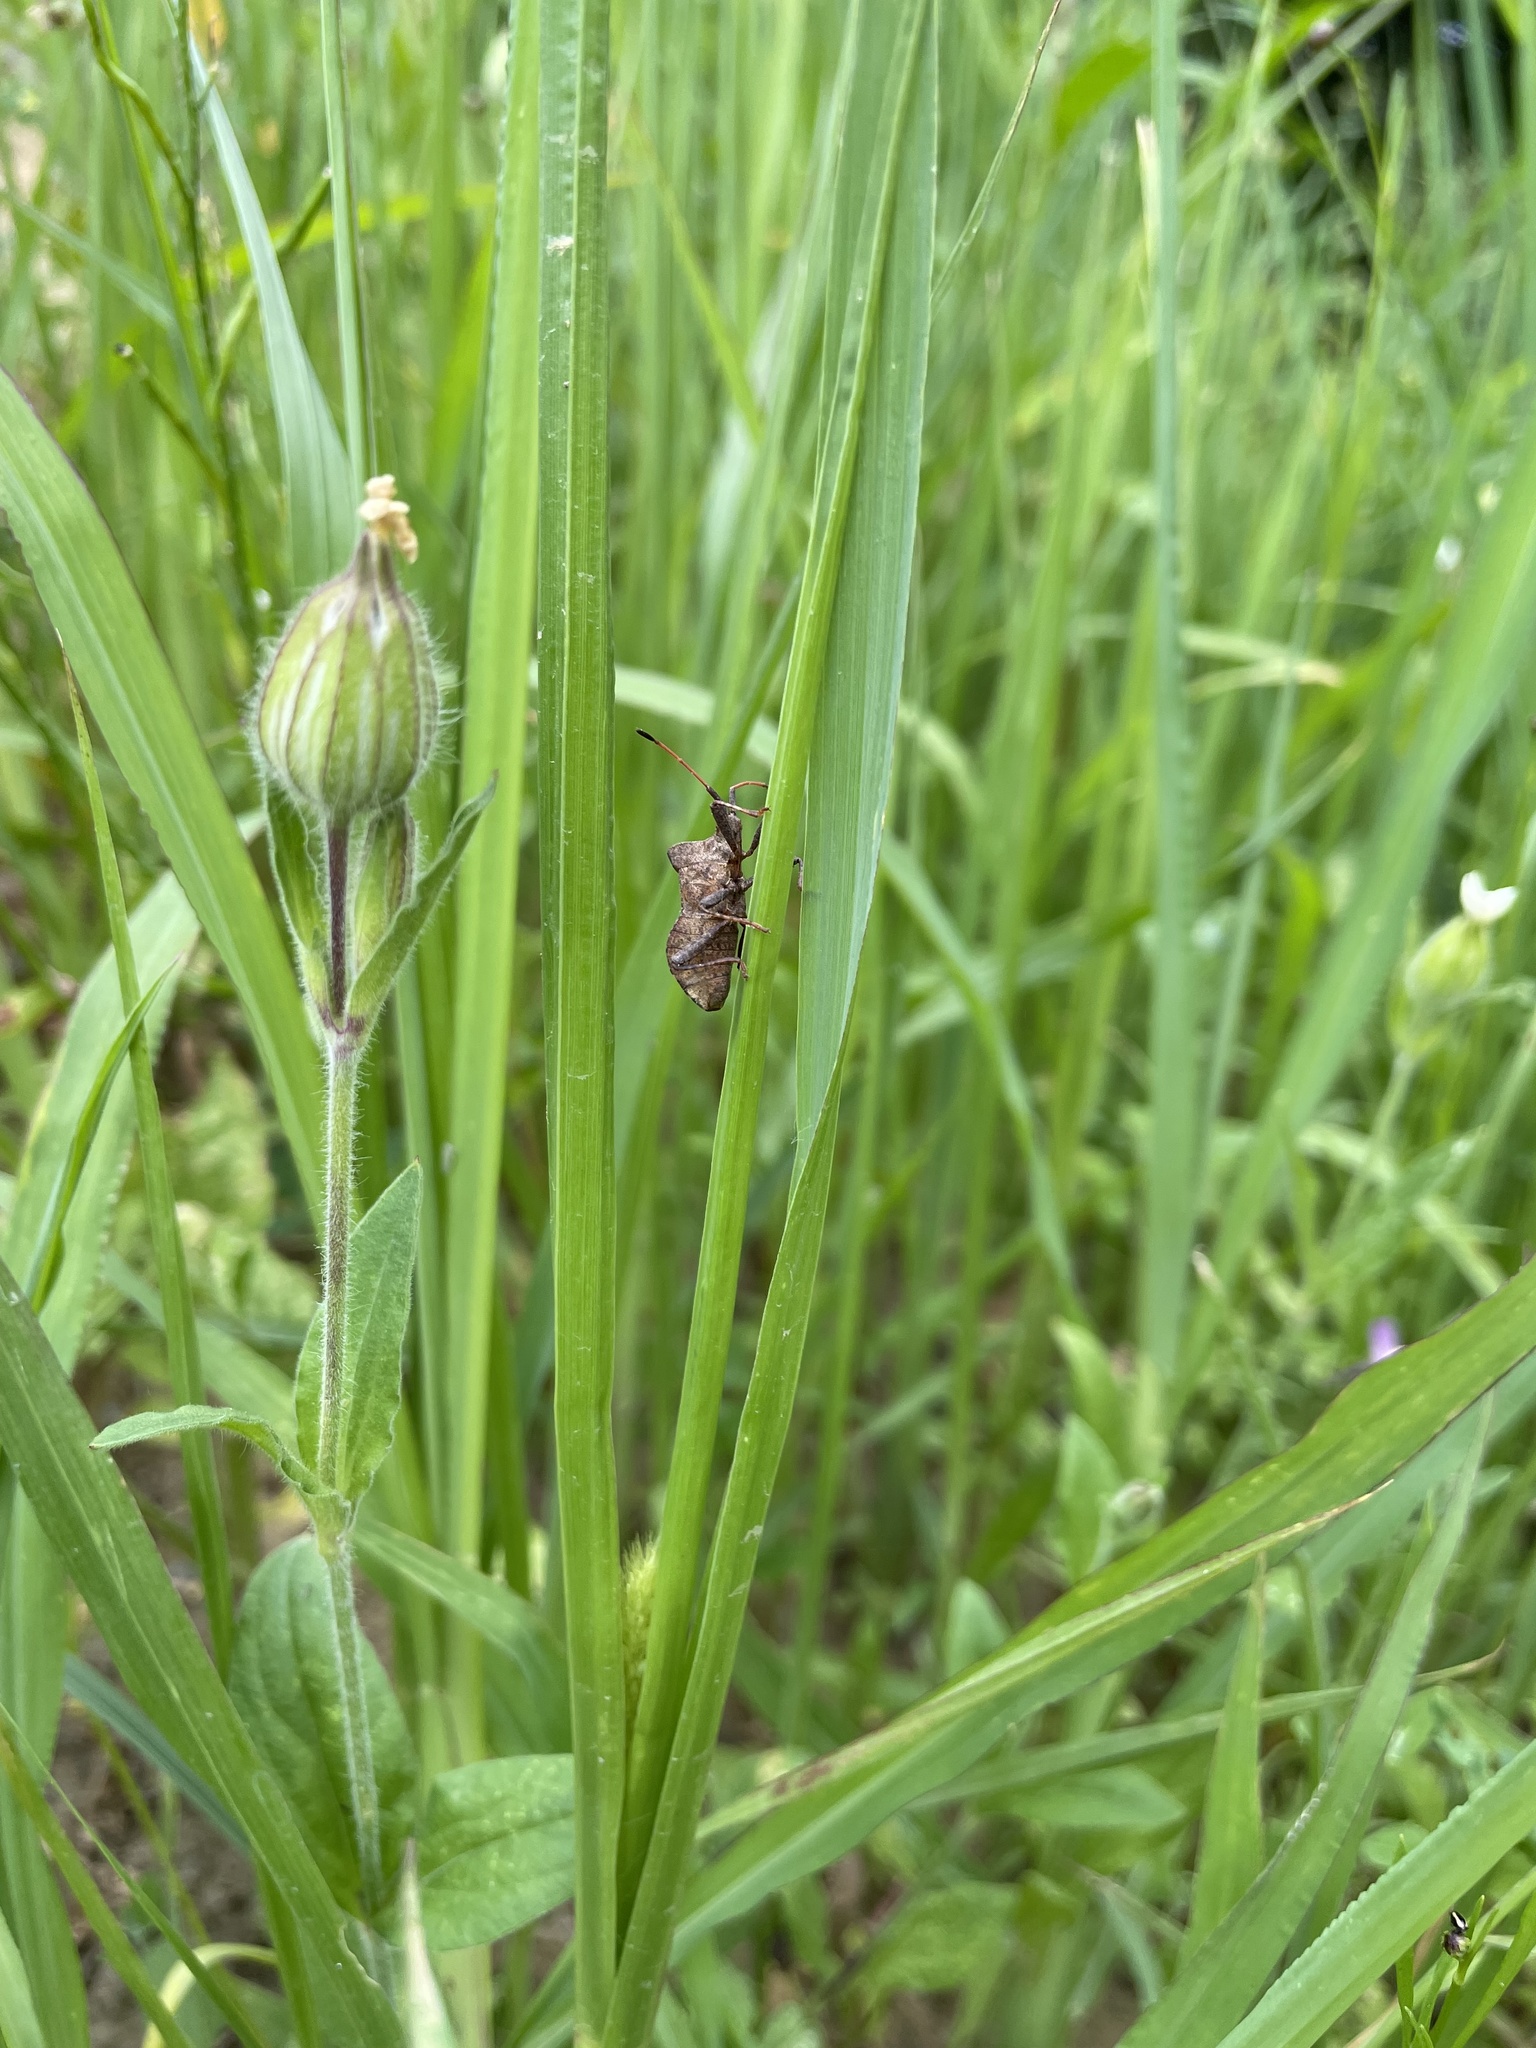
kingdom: Animalia
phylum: Arthropoda
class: Insecta
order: Hemiptera
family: Coreidae
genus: Coreus
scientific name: Coreus marginatus
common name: Dock bug
